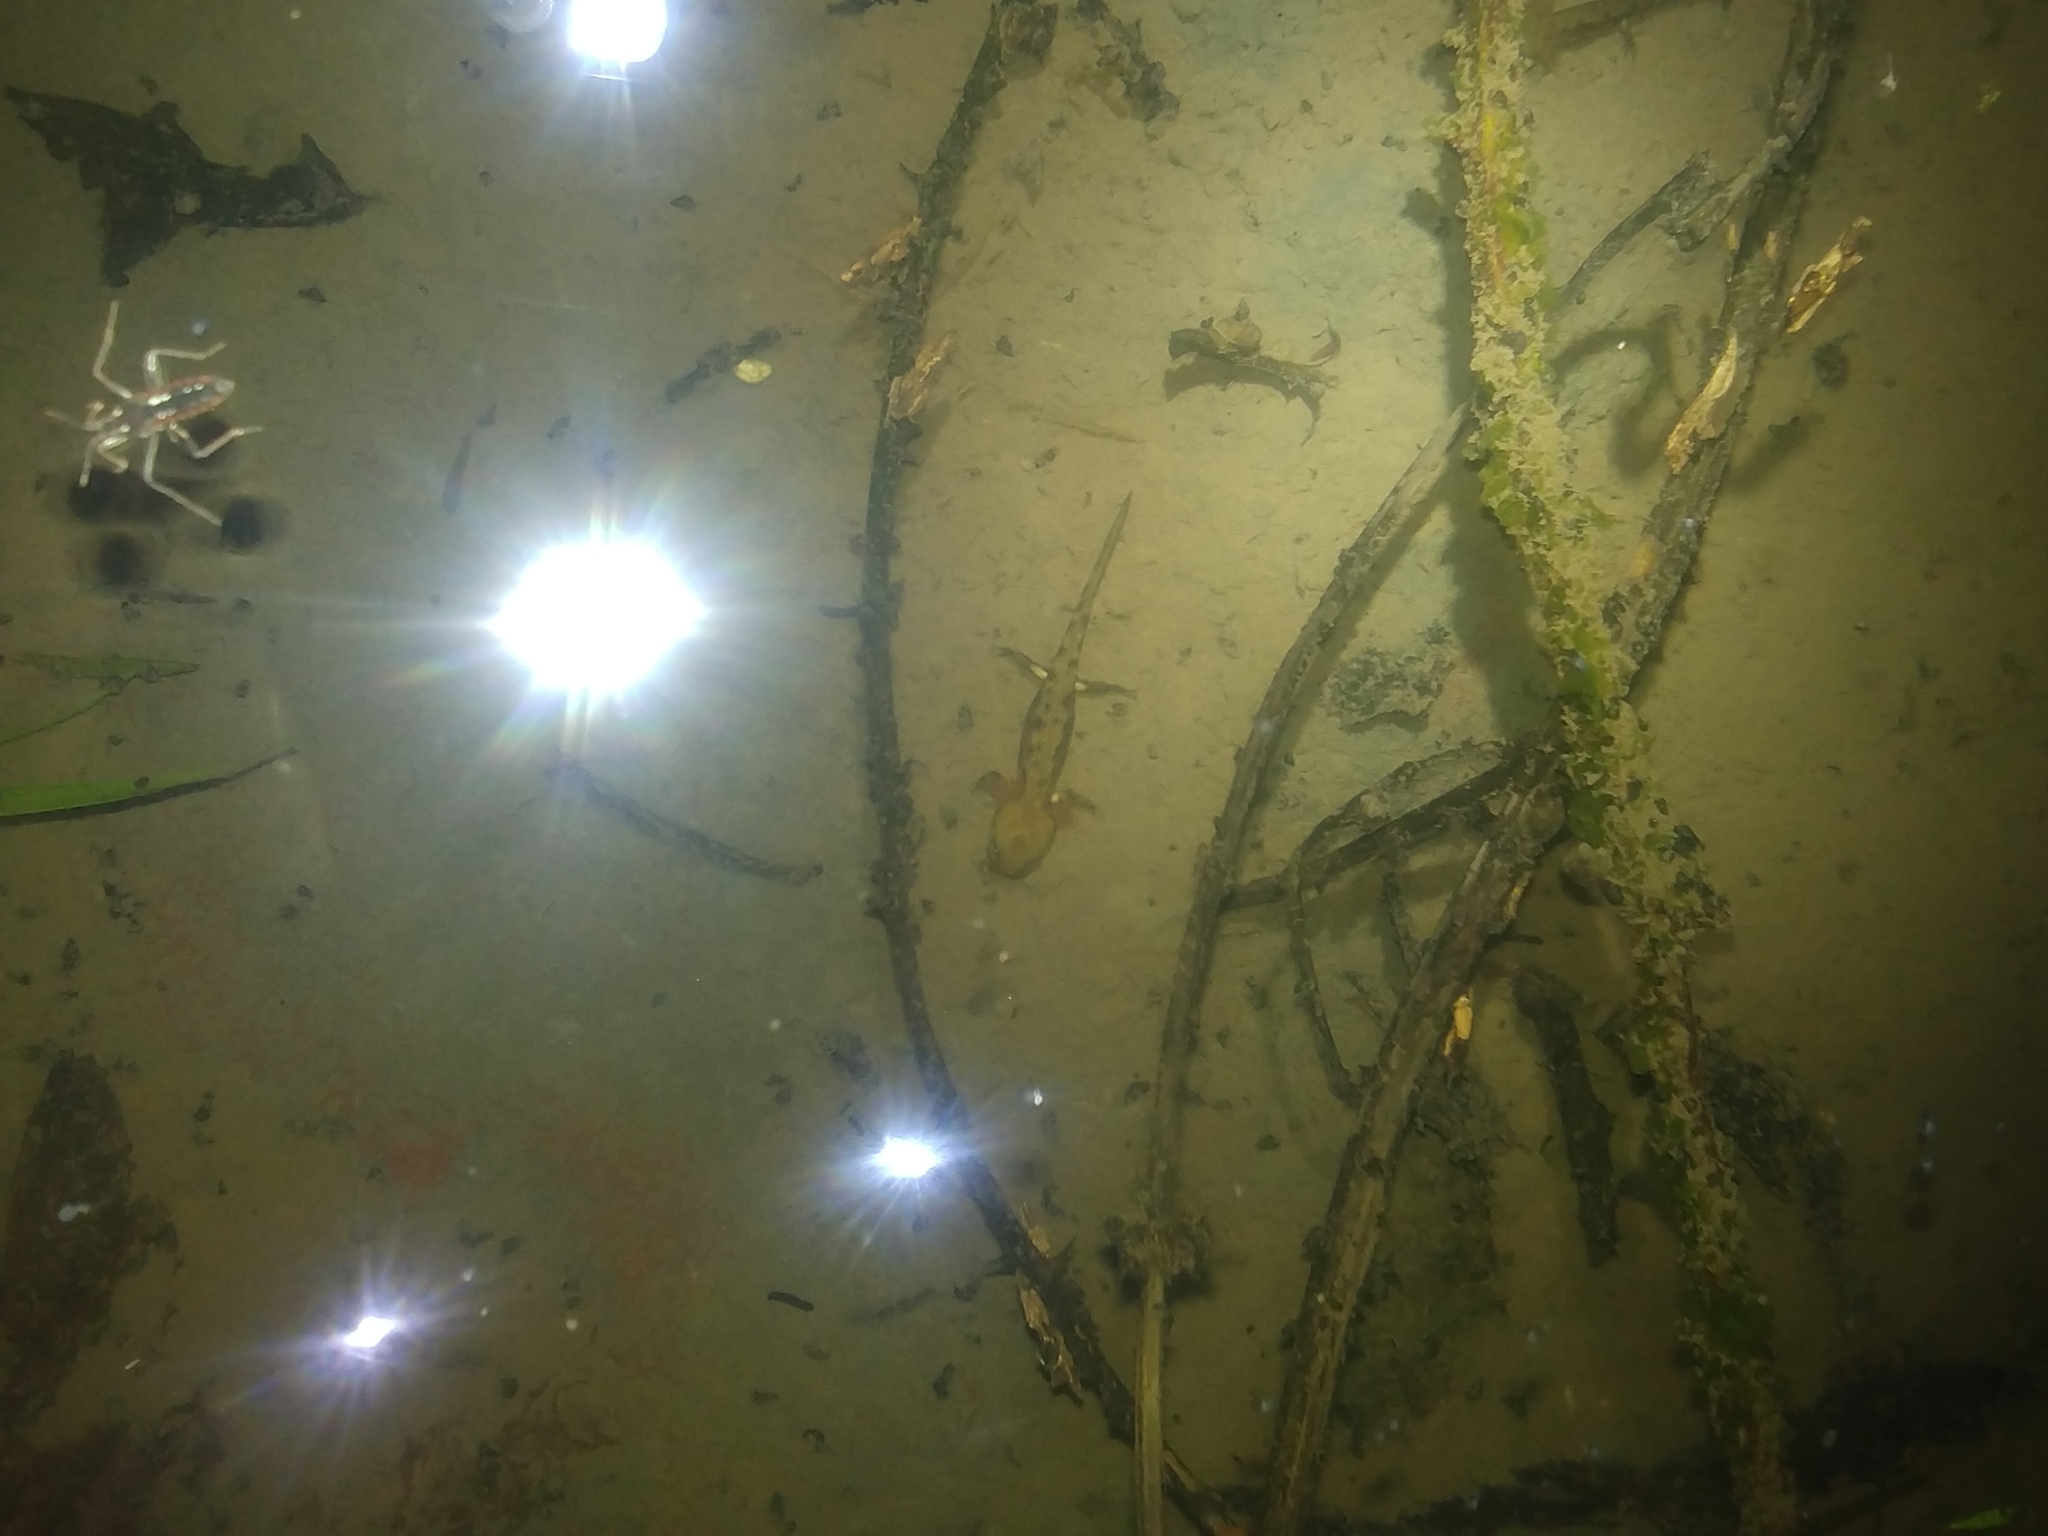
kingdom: Animalia
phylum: Chordata
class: Amphibia
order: Caudata
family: Salamandridae
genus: Salamandra
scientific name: Salamandra salamandra
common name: Fire salamander
